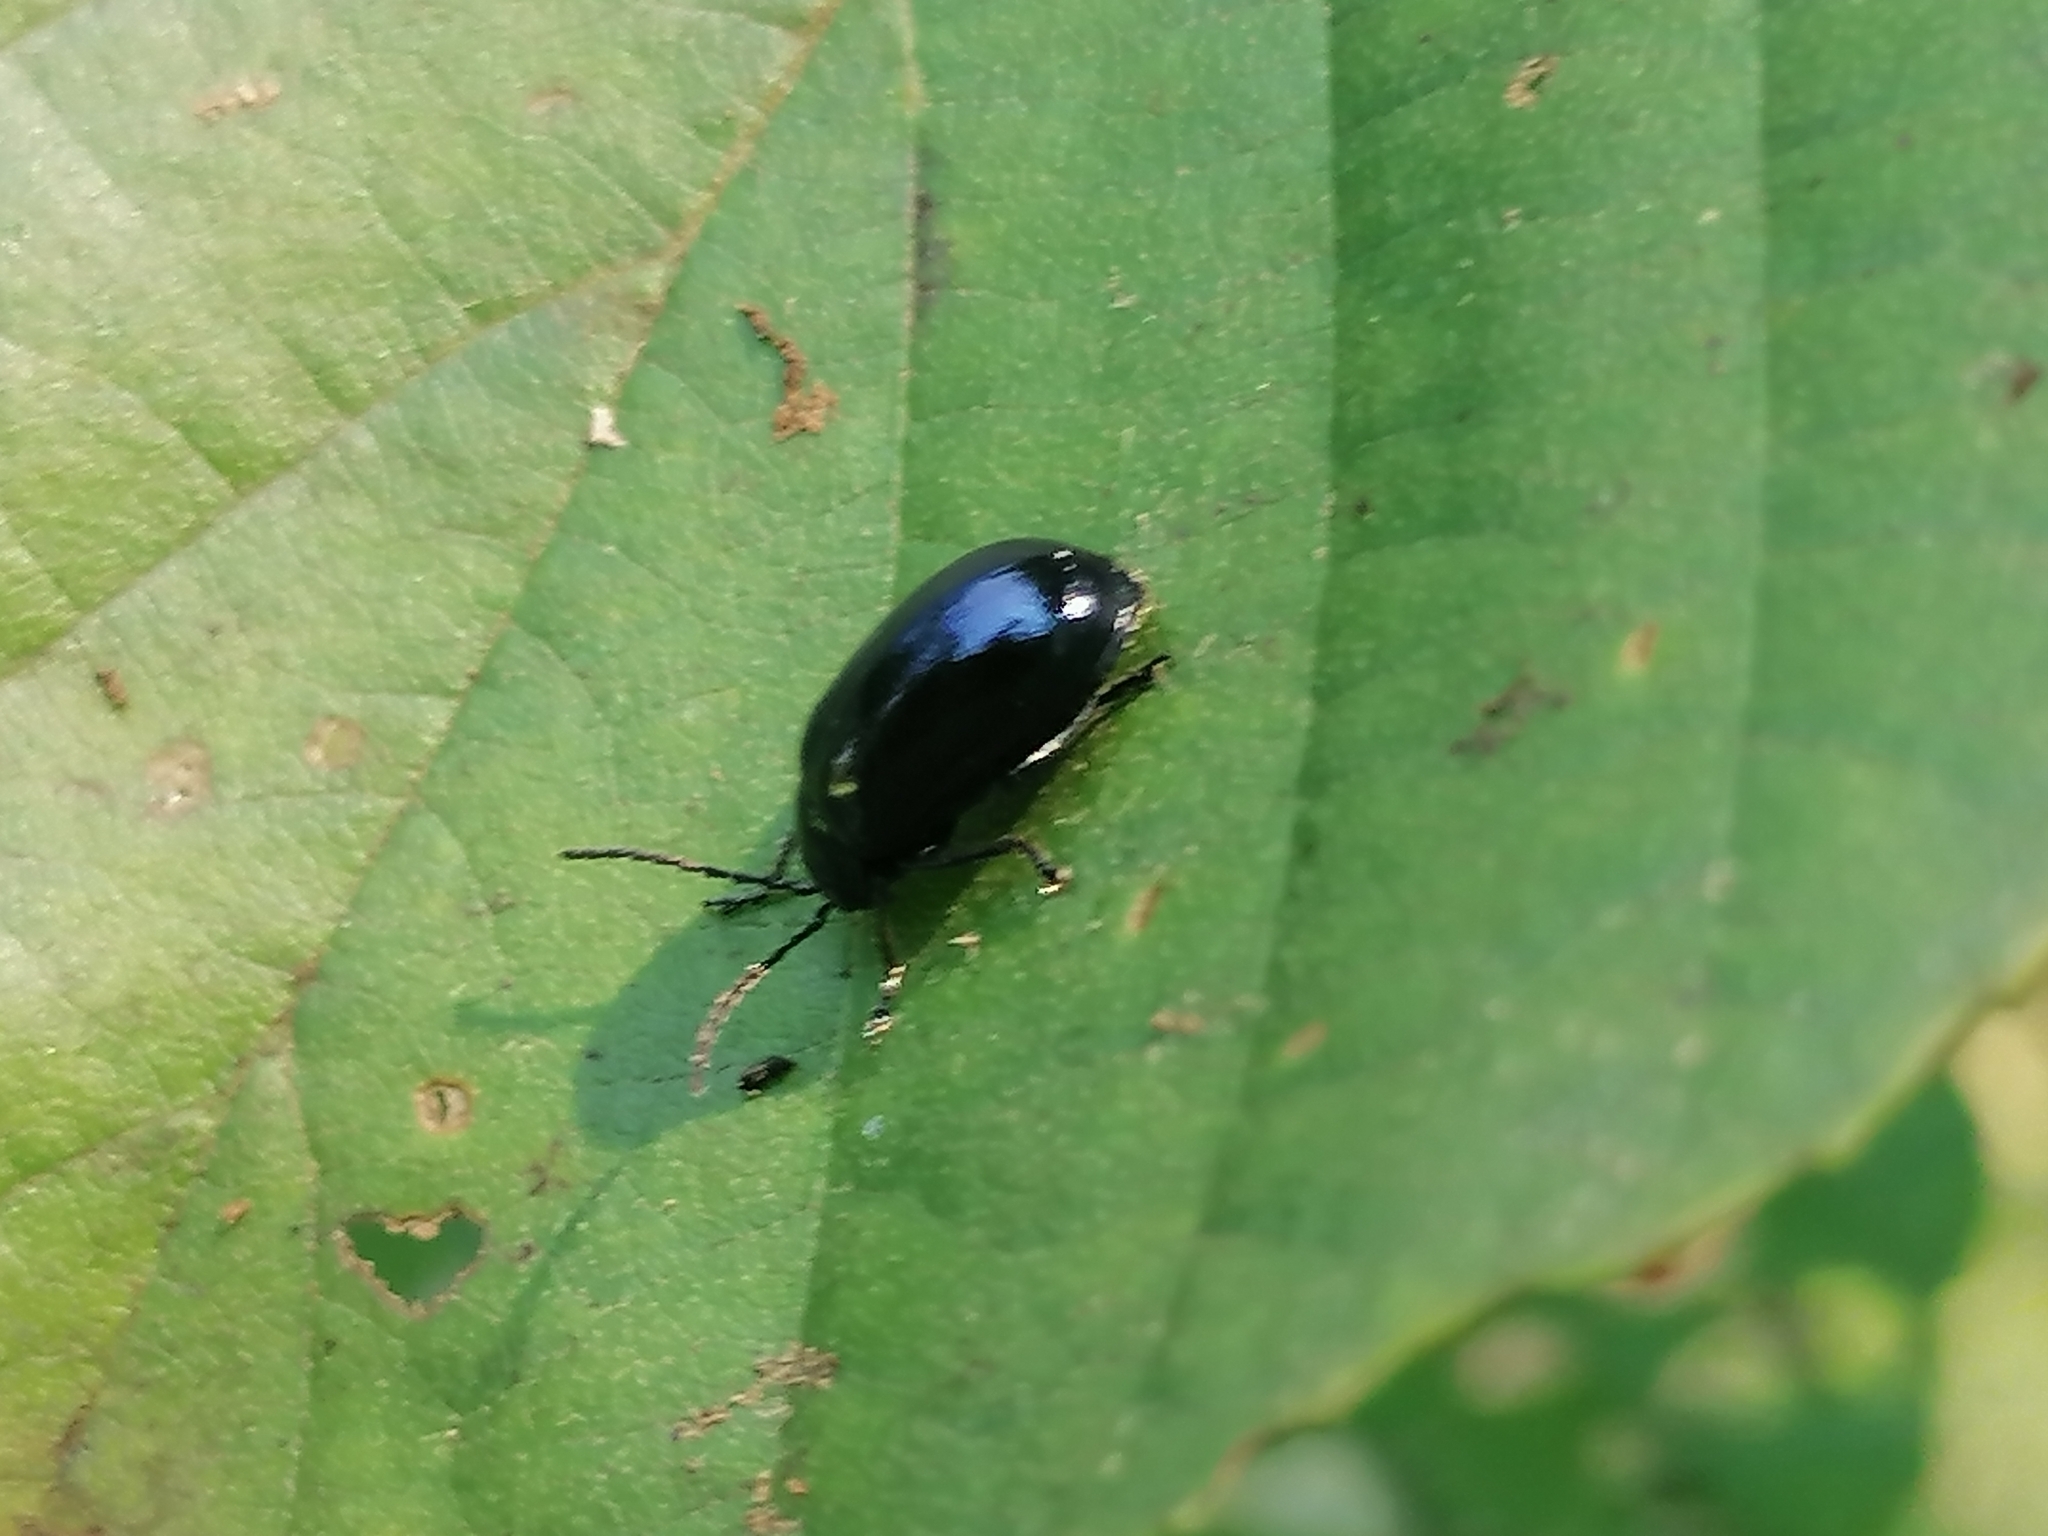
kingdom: Animalia
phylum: Arthropoda
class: Insecta
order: Coleoptera
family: Chrysomelidae
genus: Agelastica
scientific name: Agelastica alni
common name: Alder leaf beetle
